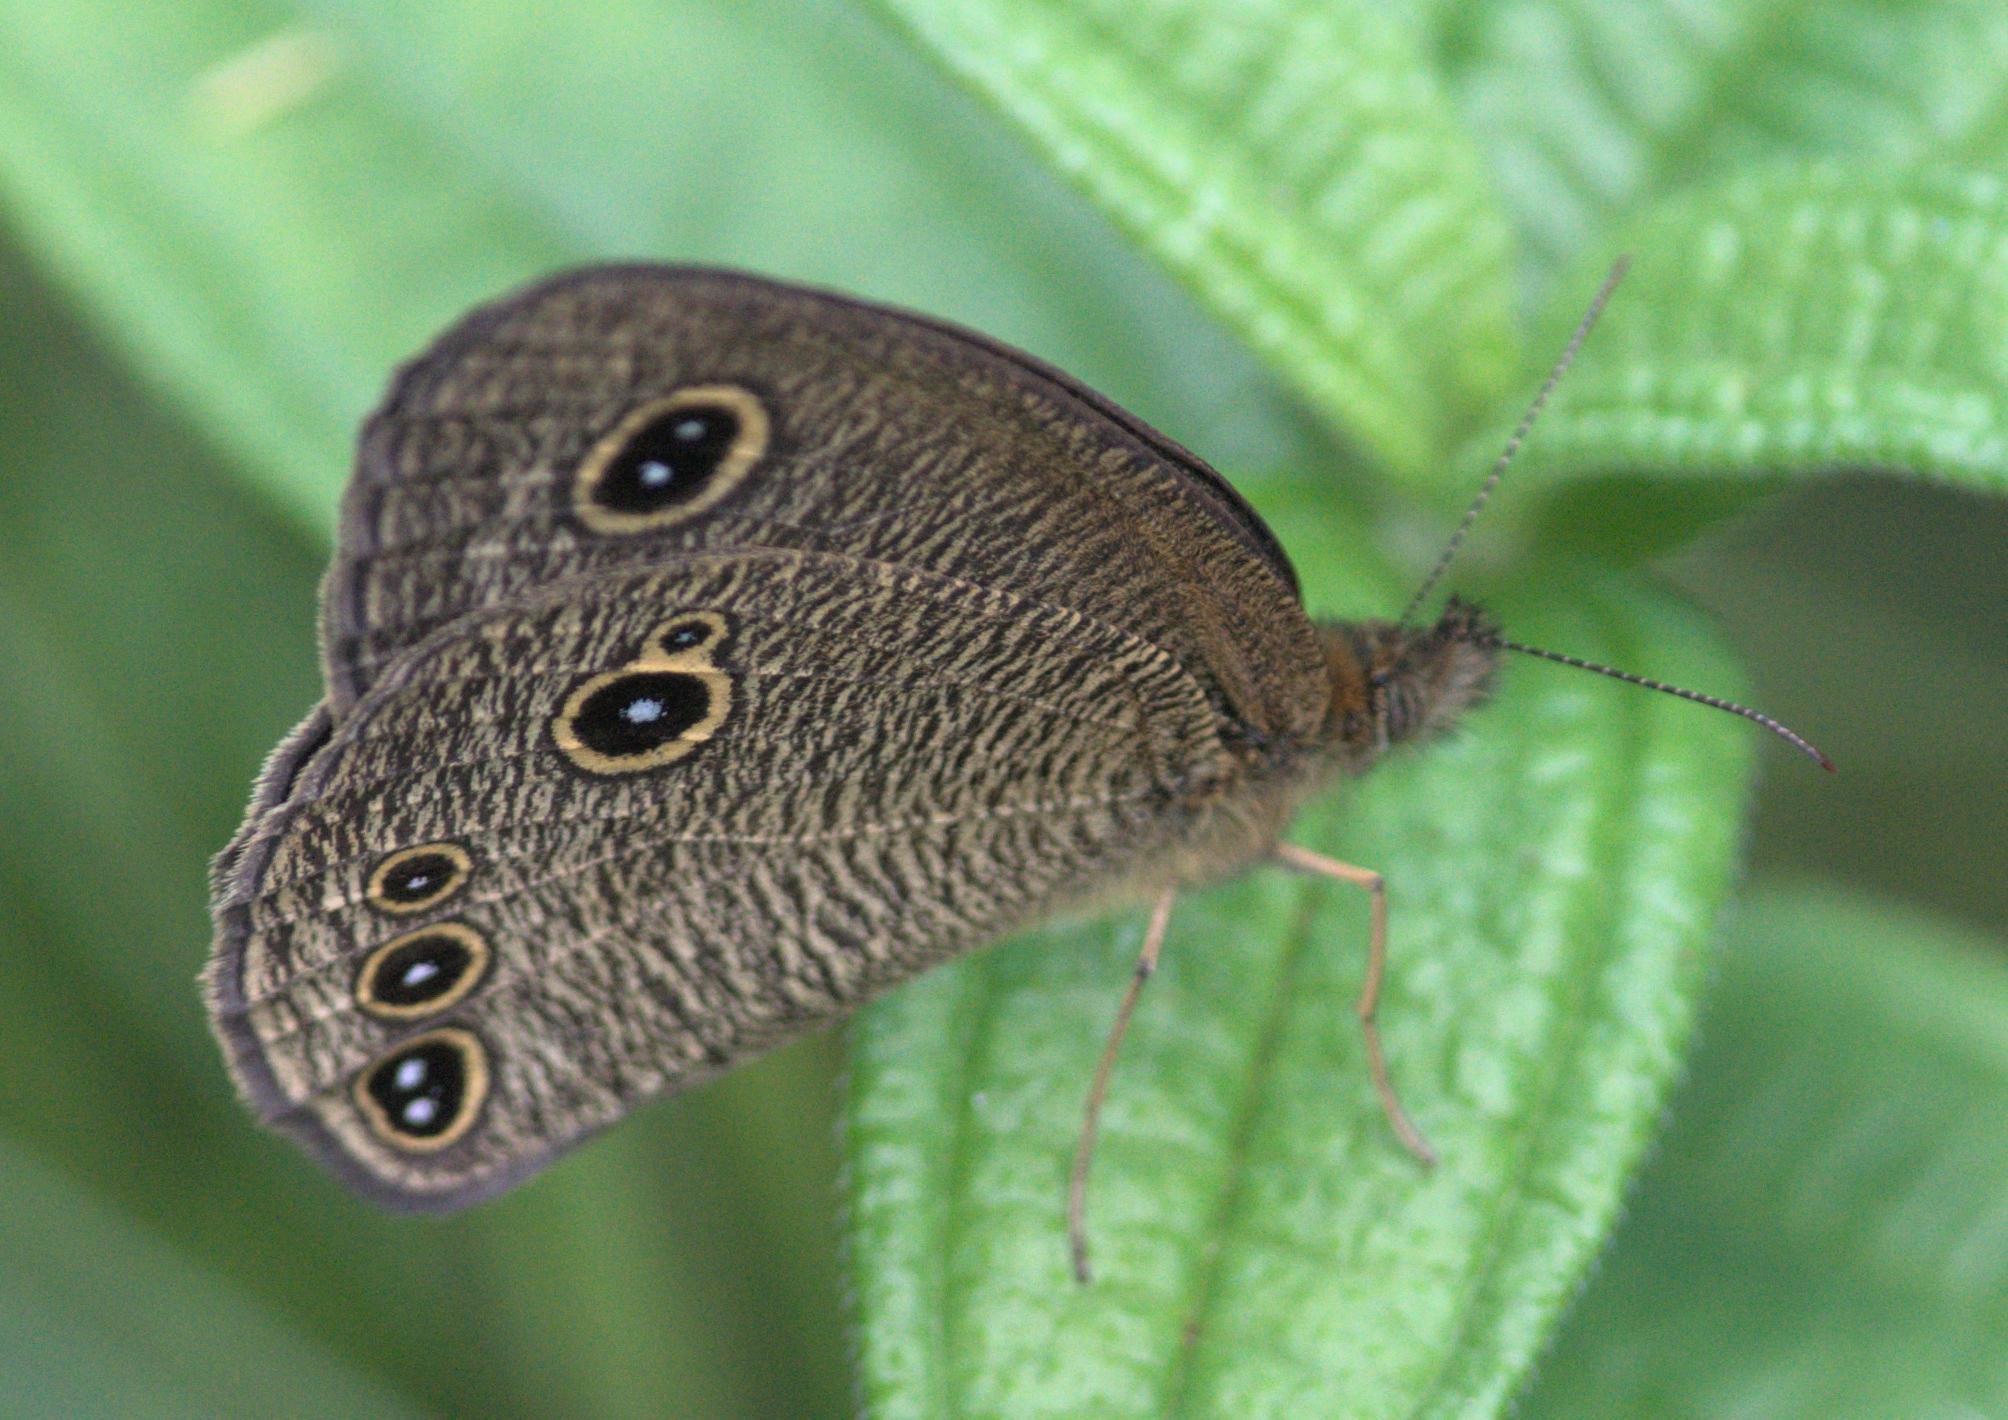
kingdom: Animalia
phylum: Arthropoda
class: Insecta
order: Lepidoptera
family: Nymphalidae
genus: Ypthima
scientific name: Ypthima nikaea
